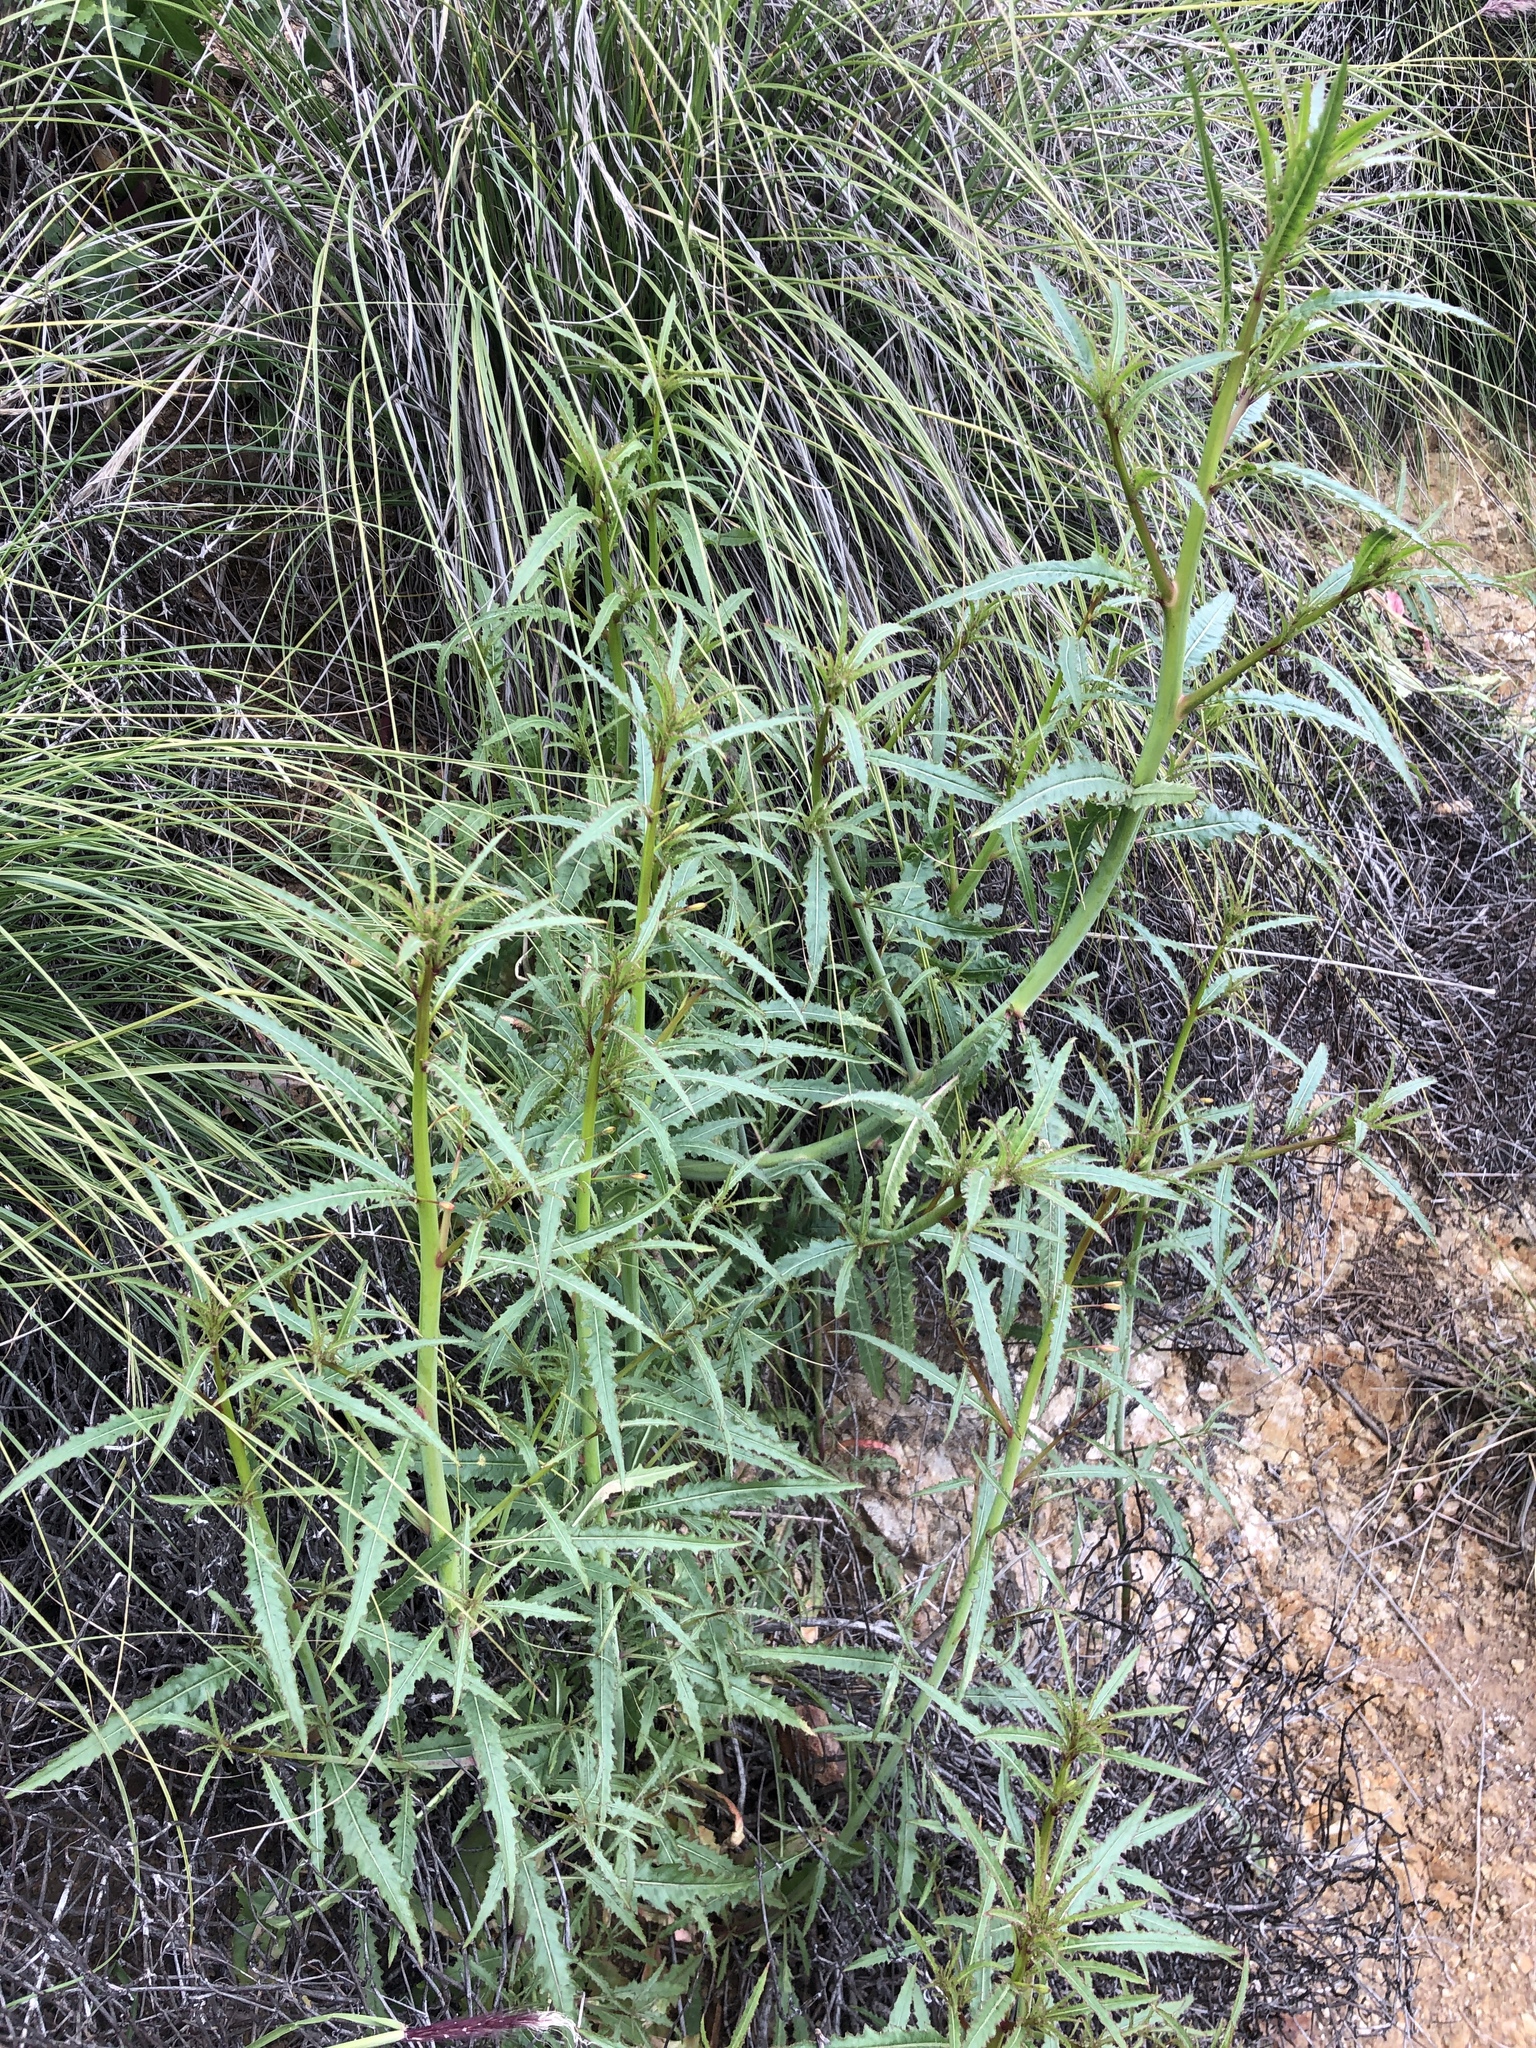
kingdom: Plantae
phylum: Tracheophyta
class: Magnoliopsida
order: Myrtales
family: Onagraceae
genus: Eulobus
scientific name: Eulobus californicus
